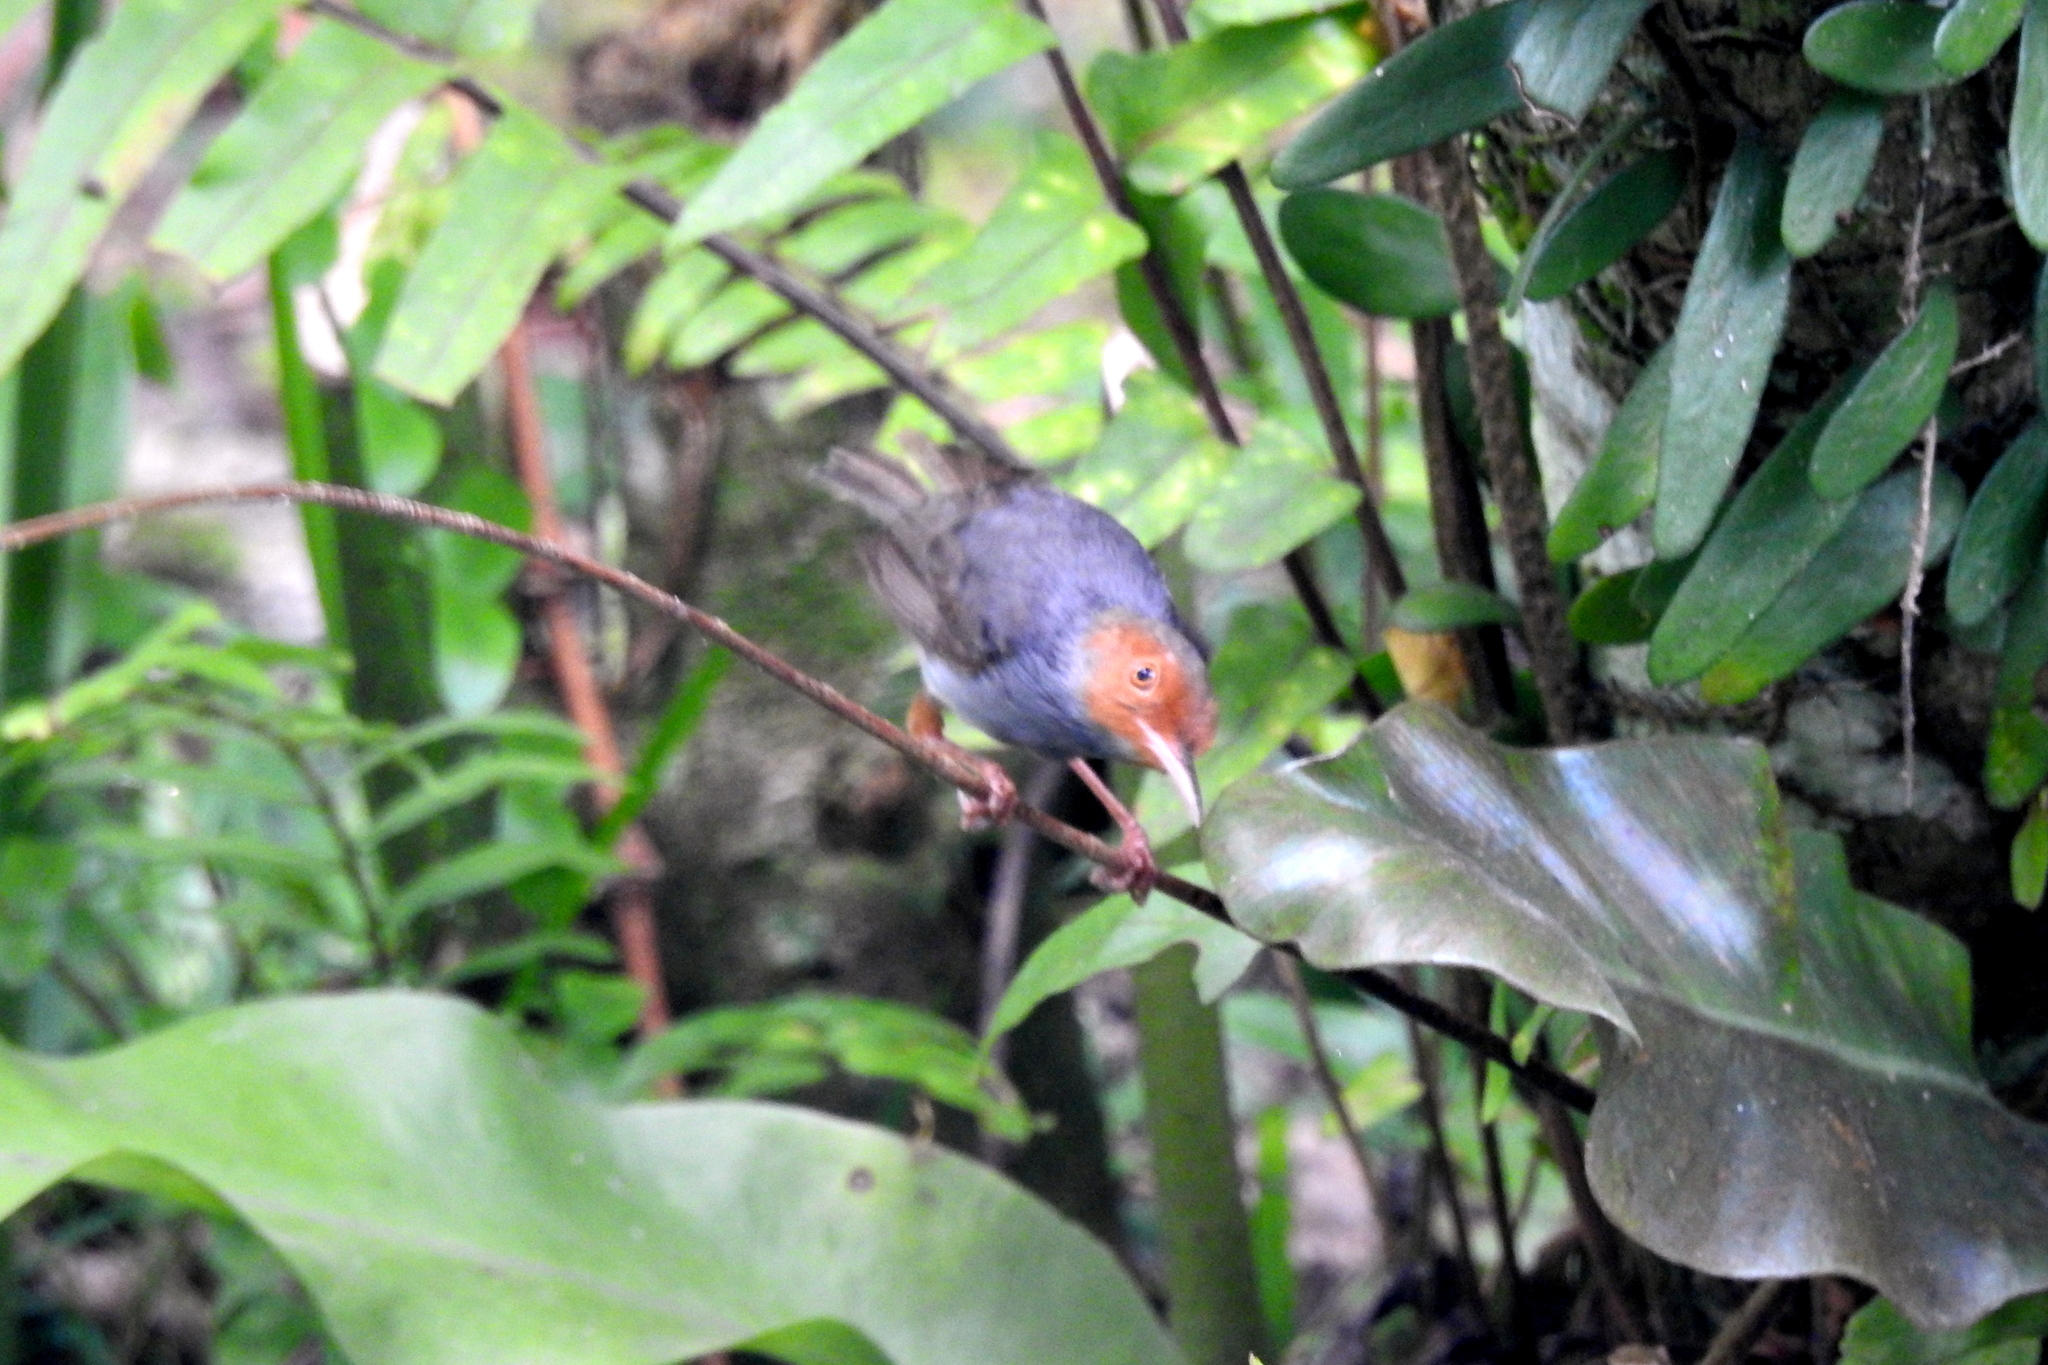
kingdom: Animalia
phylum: Chordata
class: Aves
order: Passeriformes
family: Cisticolidae
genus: Orthotomus
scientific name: Orthotomus ruficeps
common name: Ashy tailorbird
